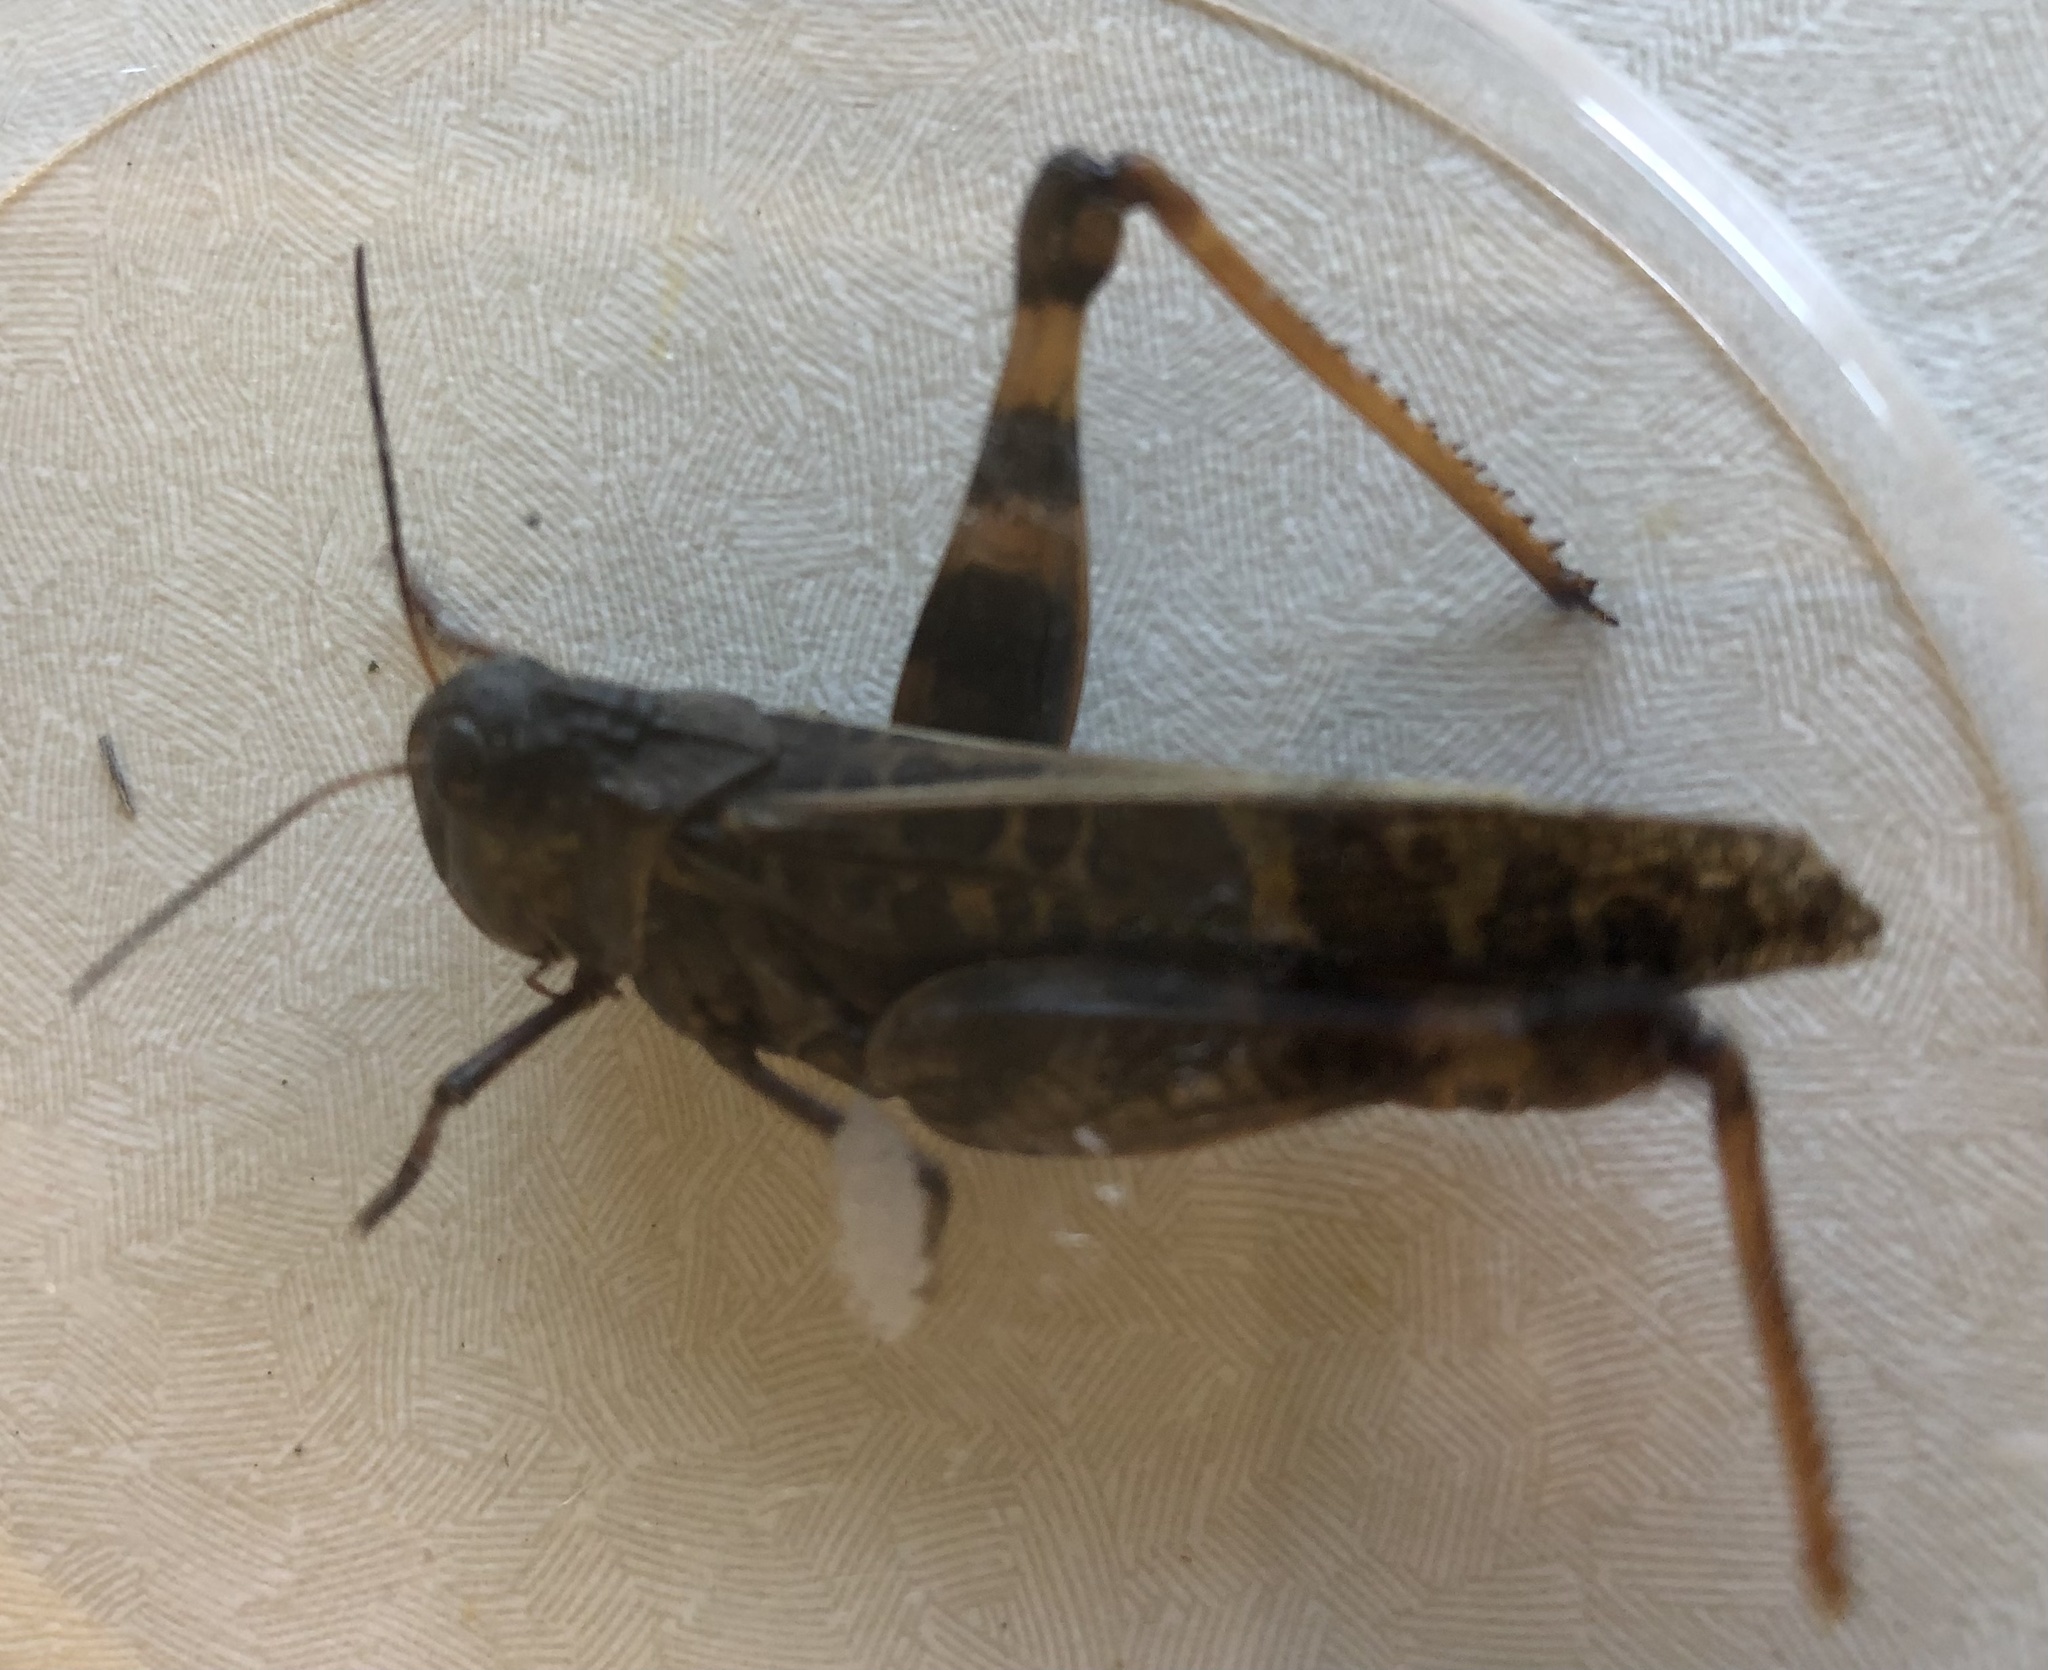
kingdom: Animalia
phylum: Arthropoda
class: Insecta
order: Orthoptera
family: Acrididae
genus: Hippiscus
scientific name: Hippiscus ocelote
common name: Wrinkled grasshopper
